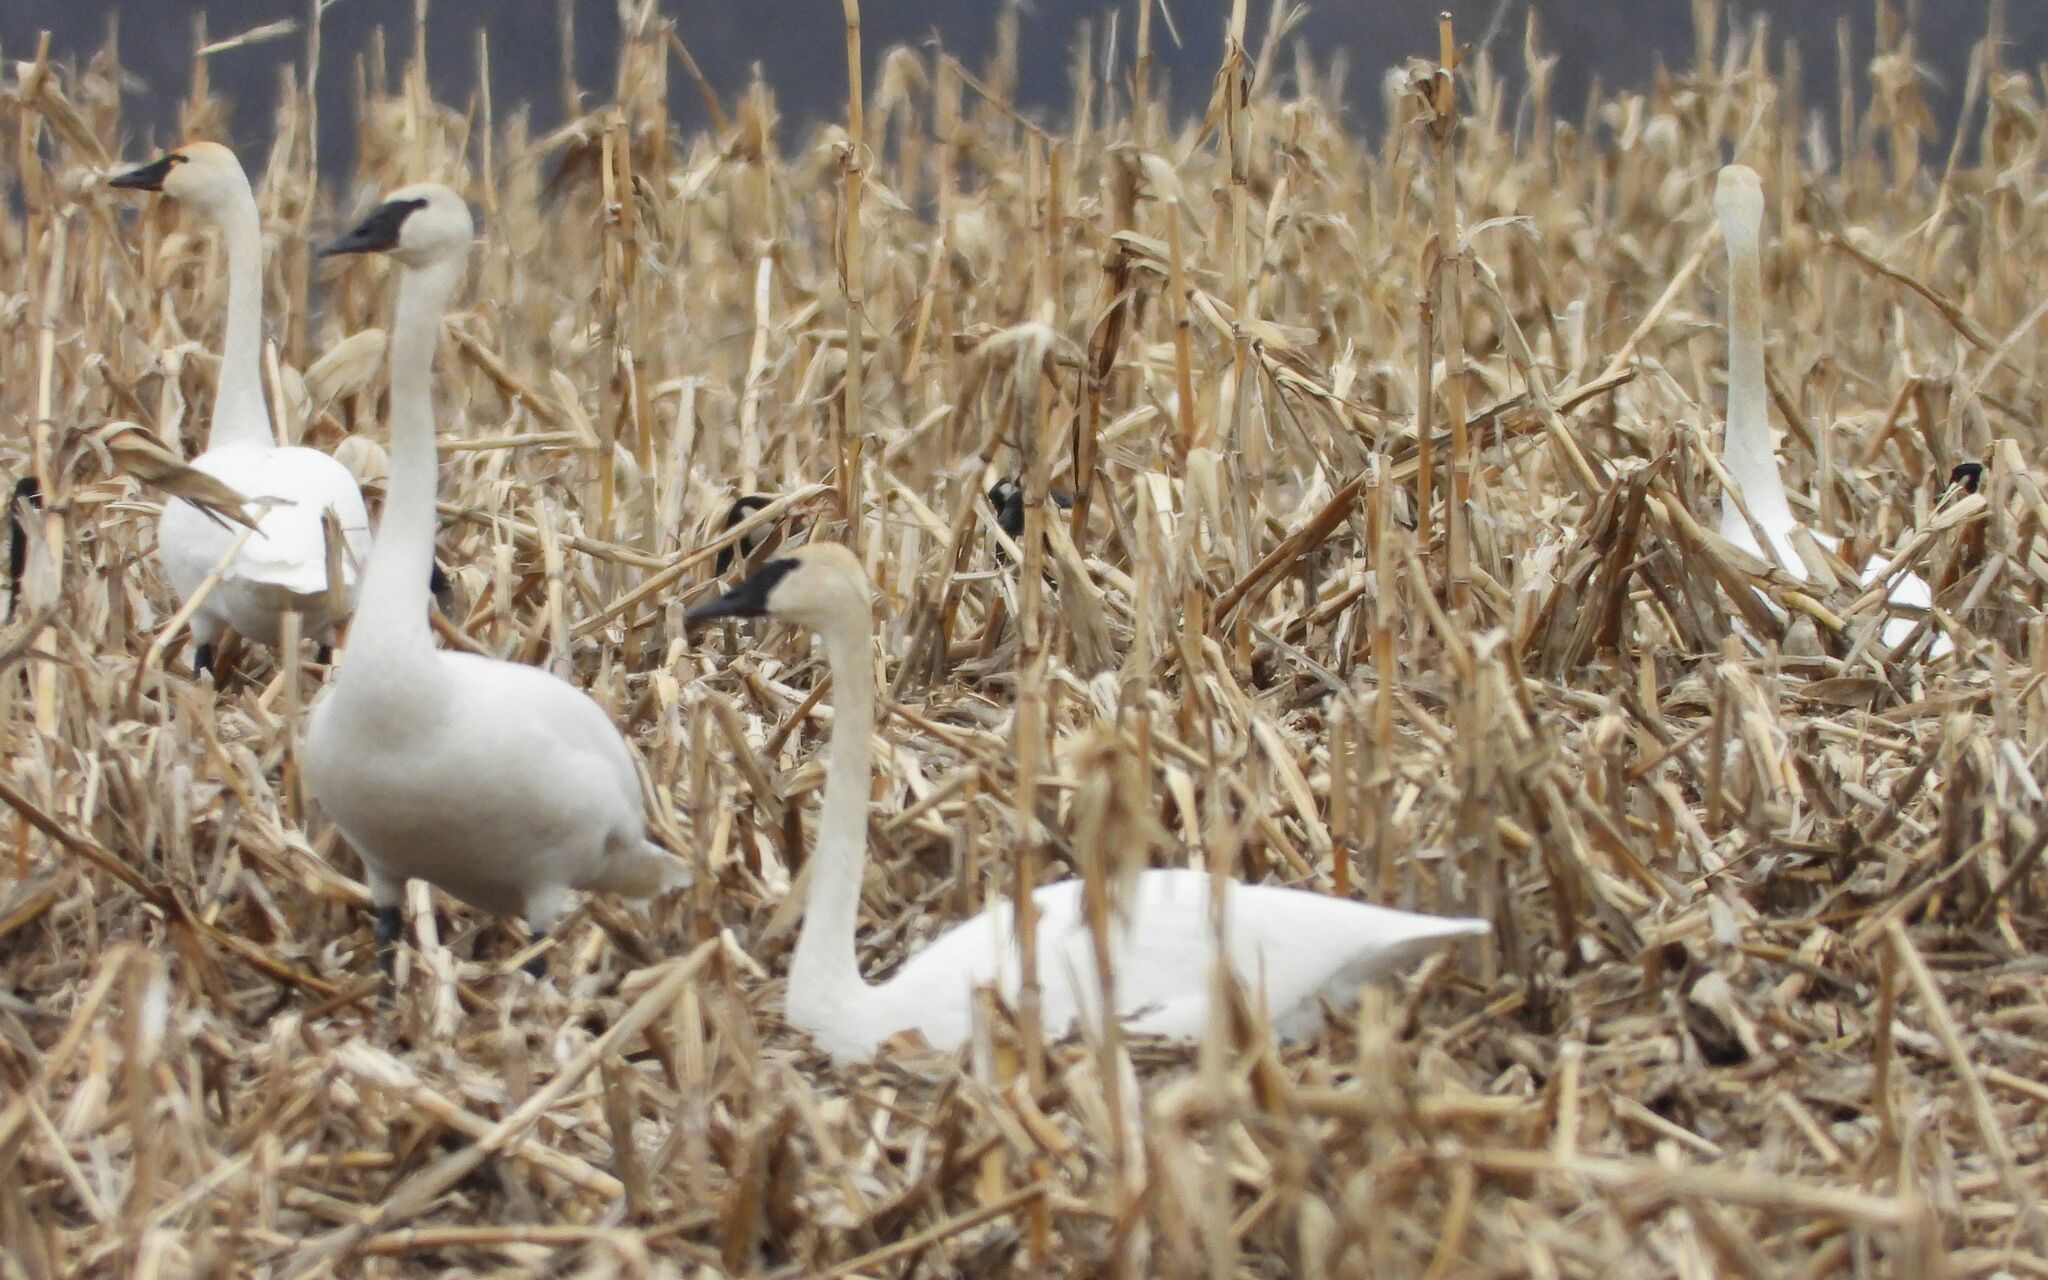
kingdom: Animalia
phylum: Chordata
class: Aves
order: Anseriformes
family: Anatidae
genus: Cygnus
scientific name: Cygnus columbianus
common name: Tundra swan
